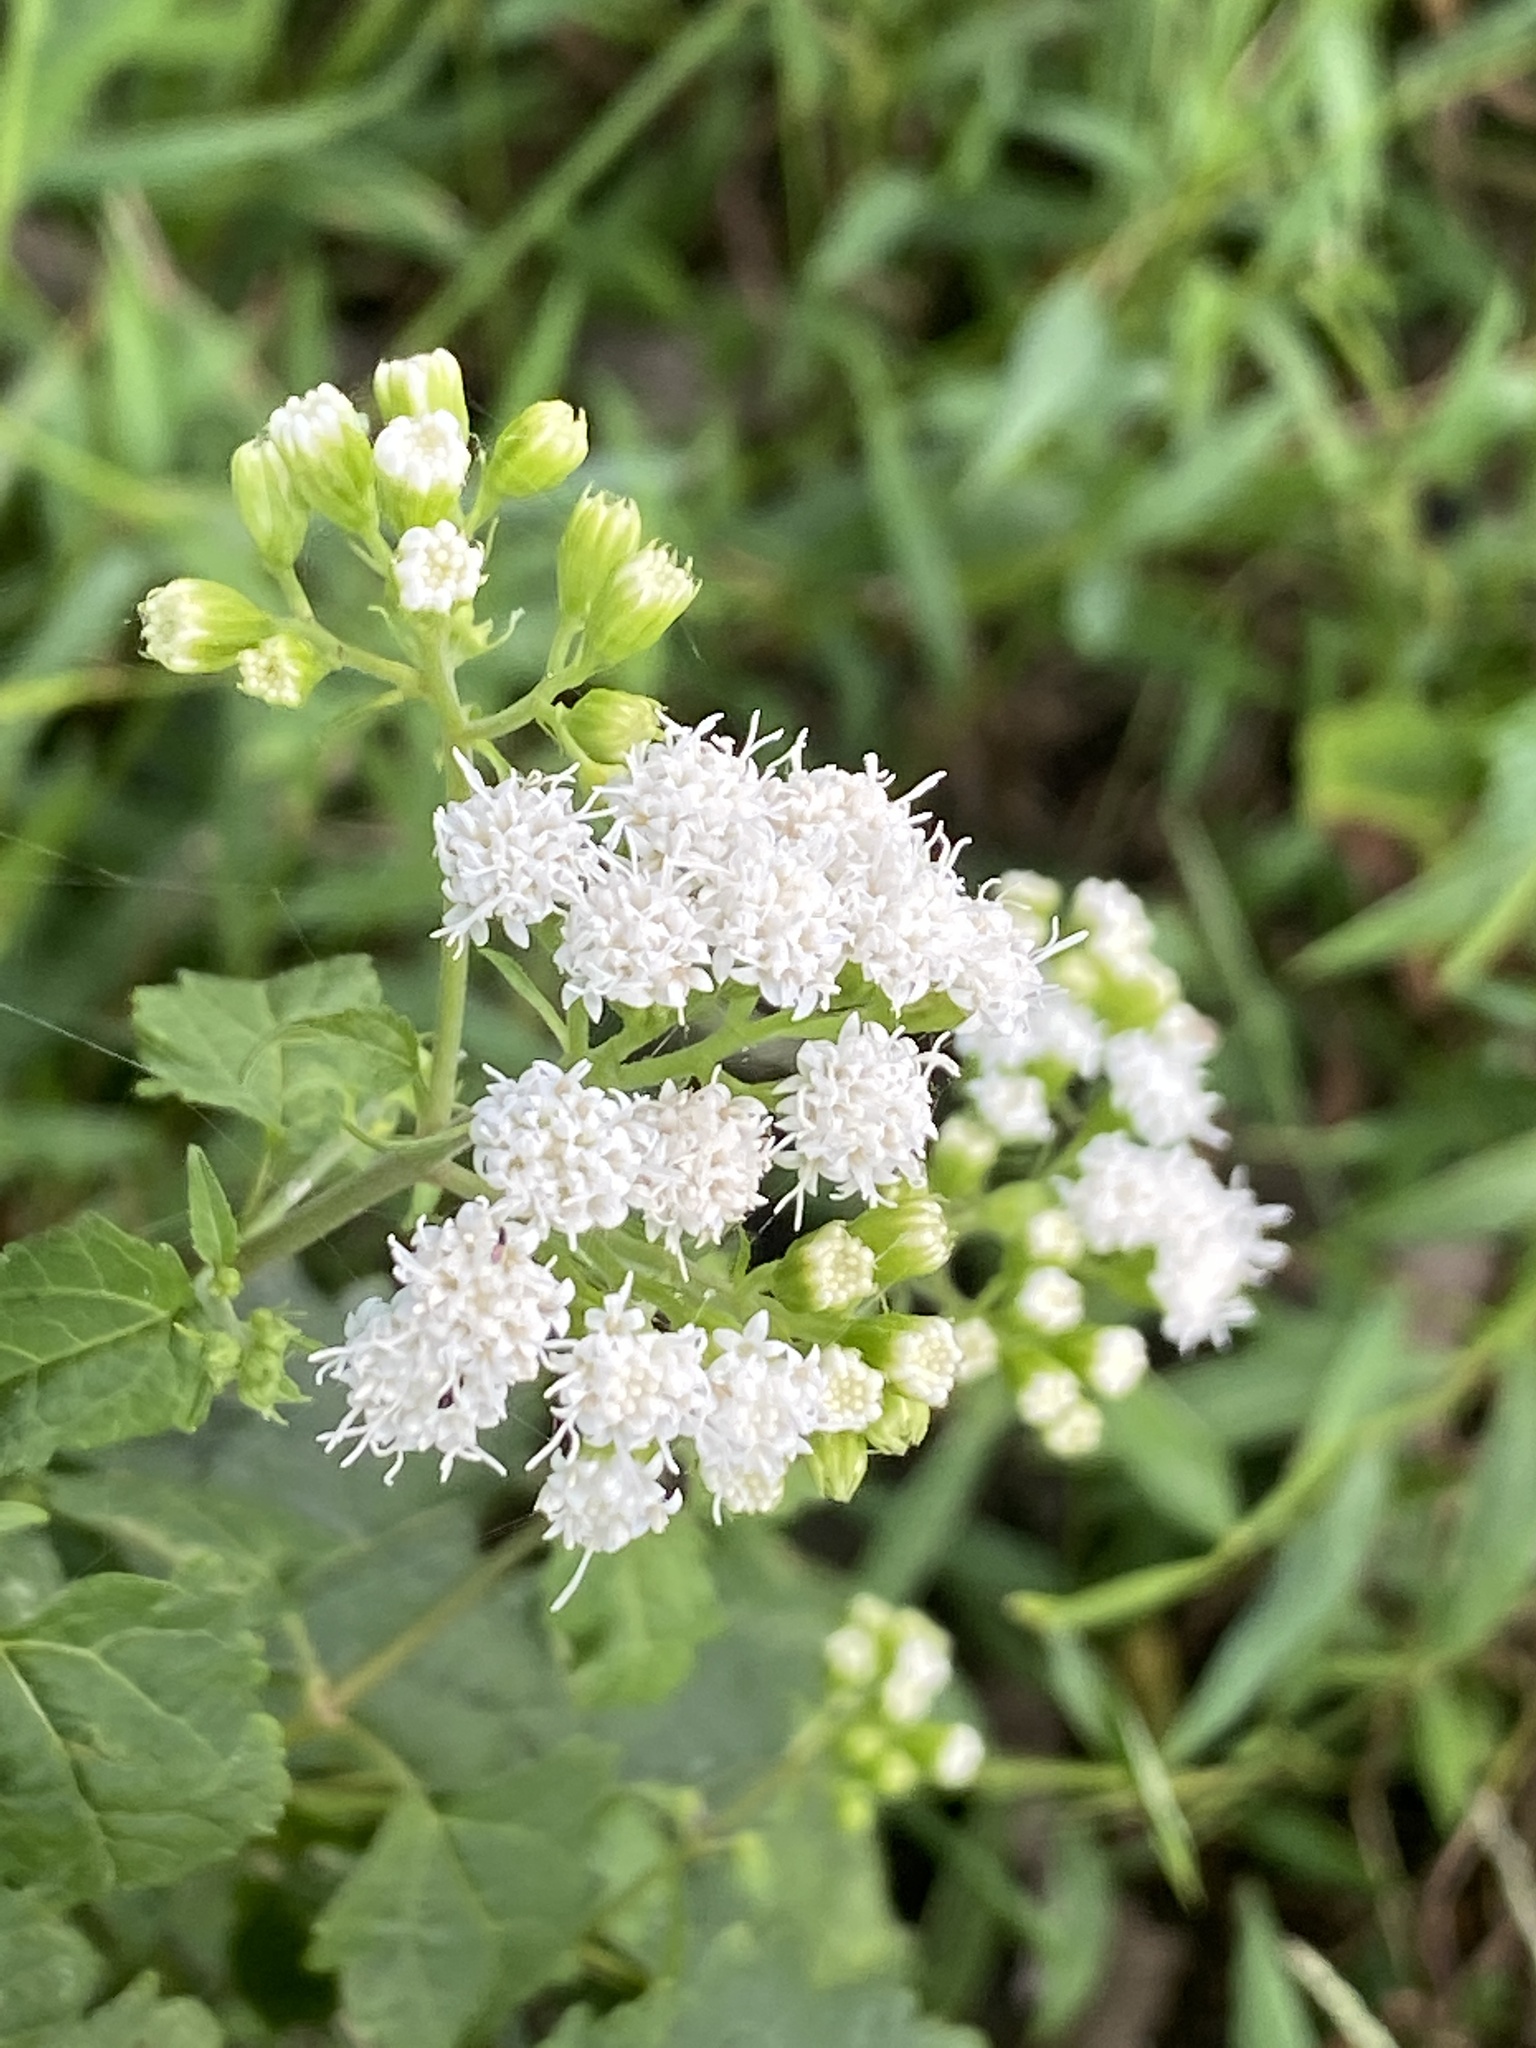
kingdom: Plantae
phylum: Tracheophyta
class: Magnoliopsida
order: Asterales
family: Asteraceae
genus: Ageratina
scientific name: Ageratina altissima
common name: White snakeroot
